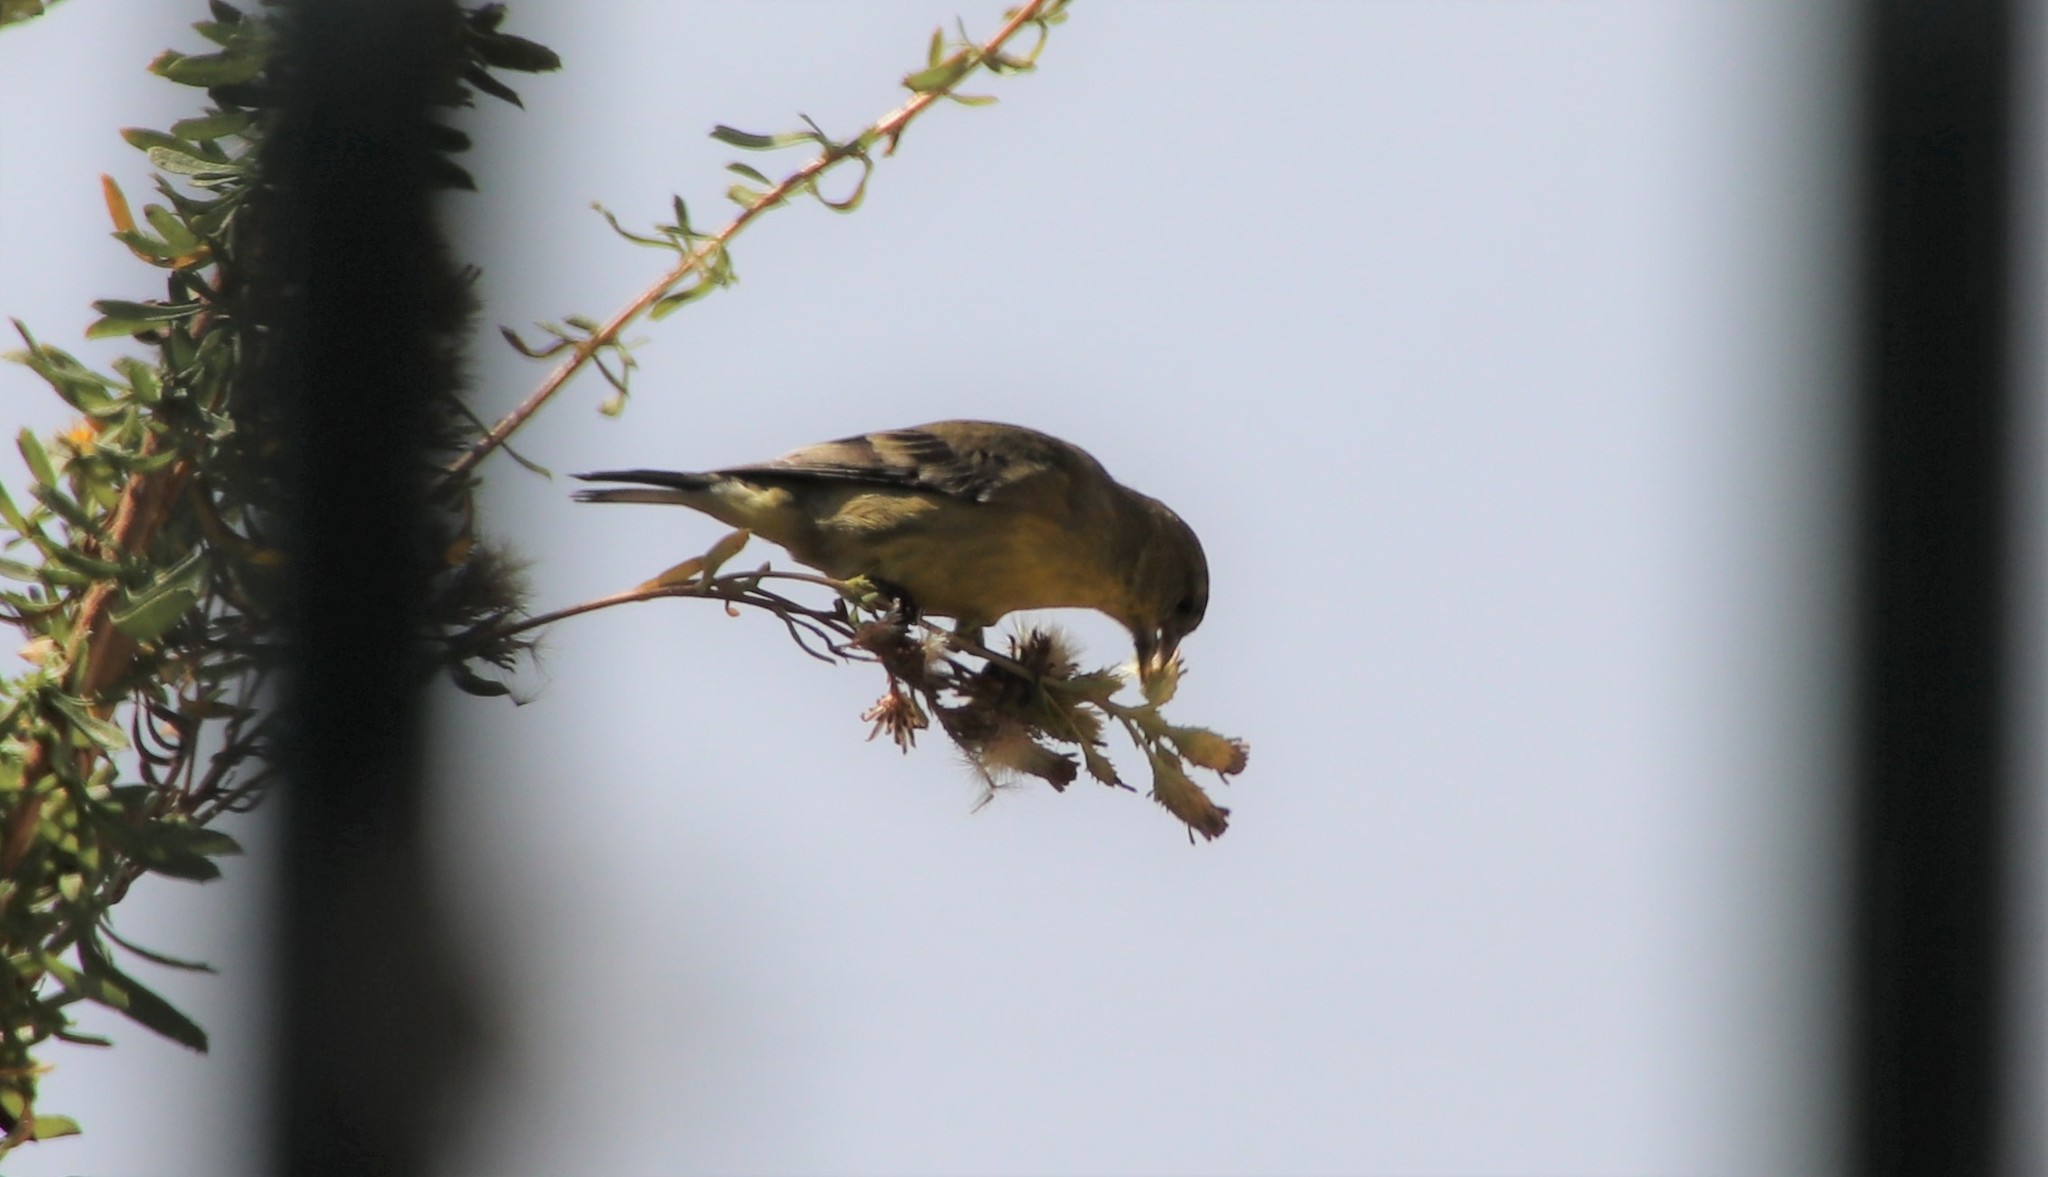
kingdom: Animalia
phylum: Chordata
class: Aves
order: Passeriformes
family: Fringillidae
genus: Spinus
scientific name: Spinus psaltria
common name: Lesser goldfinch
